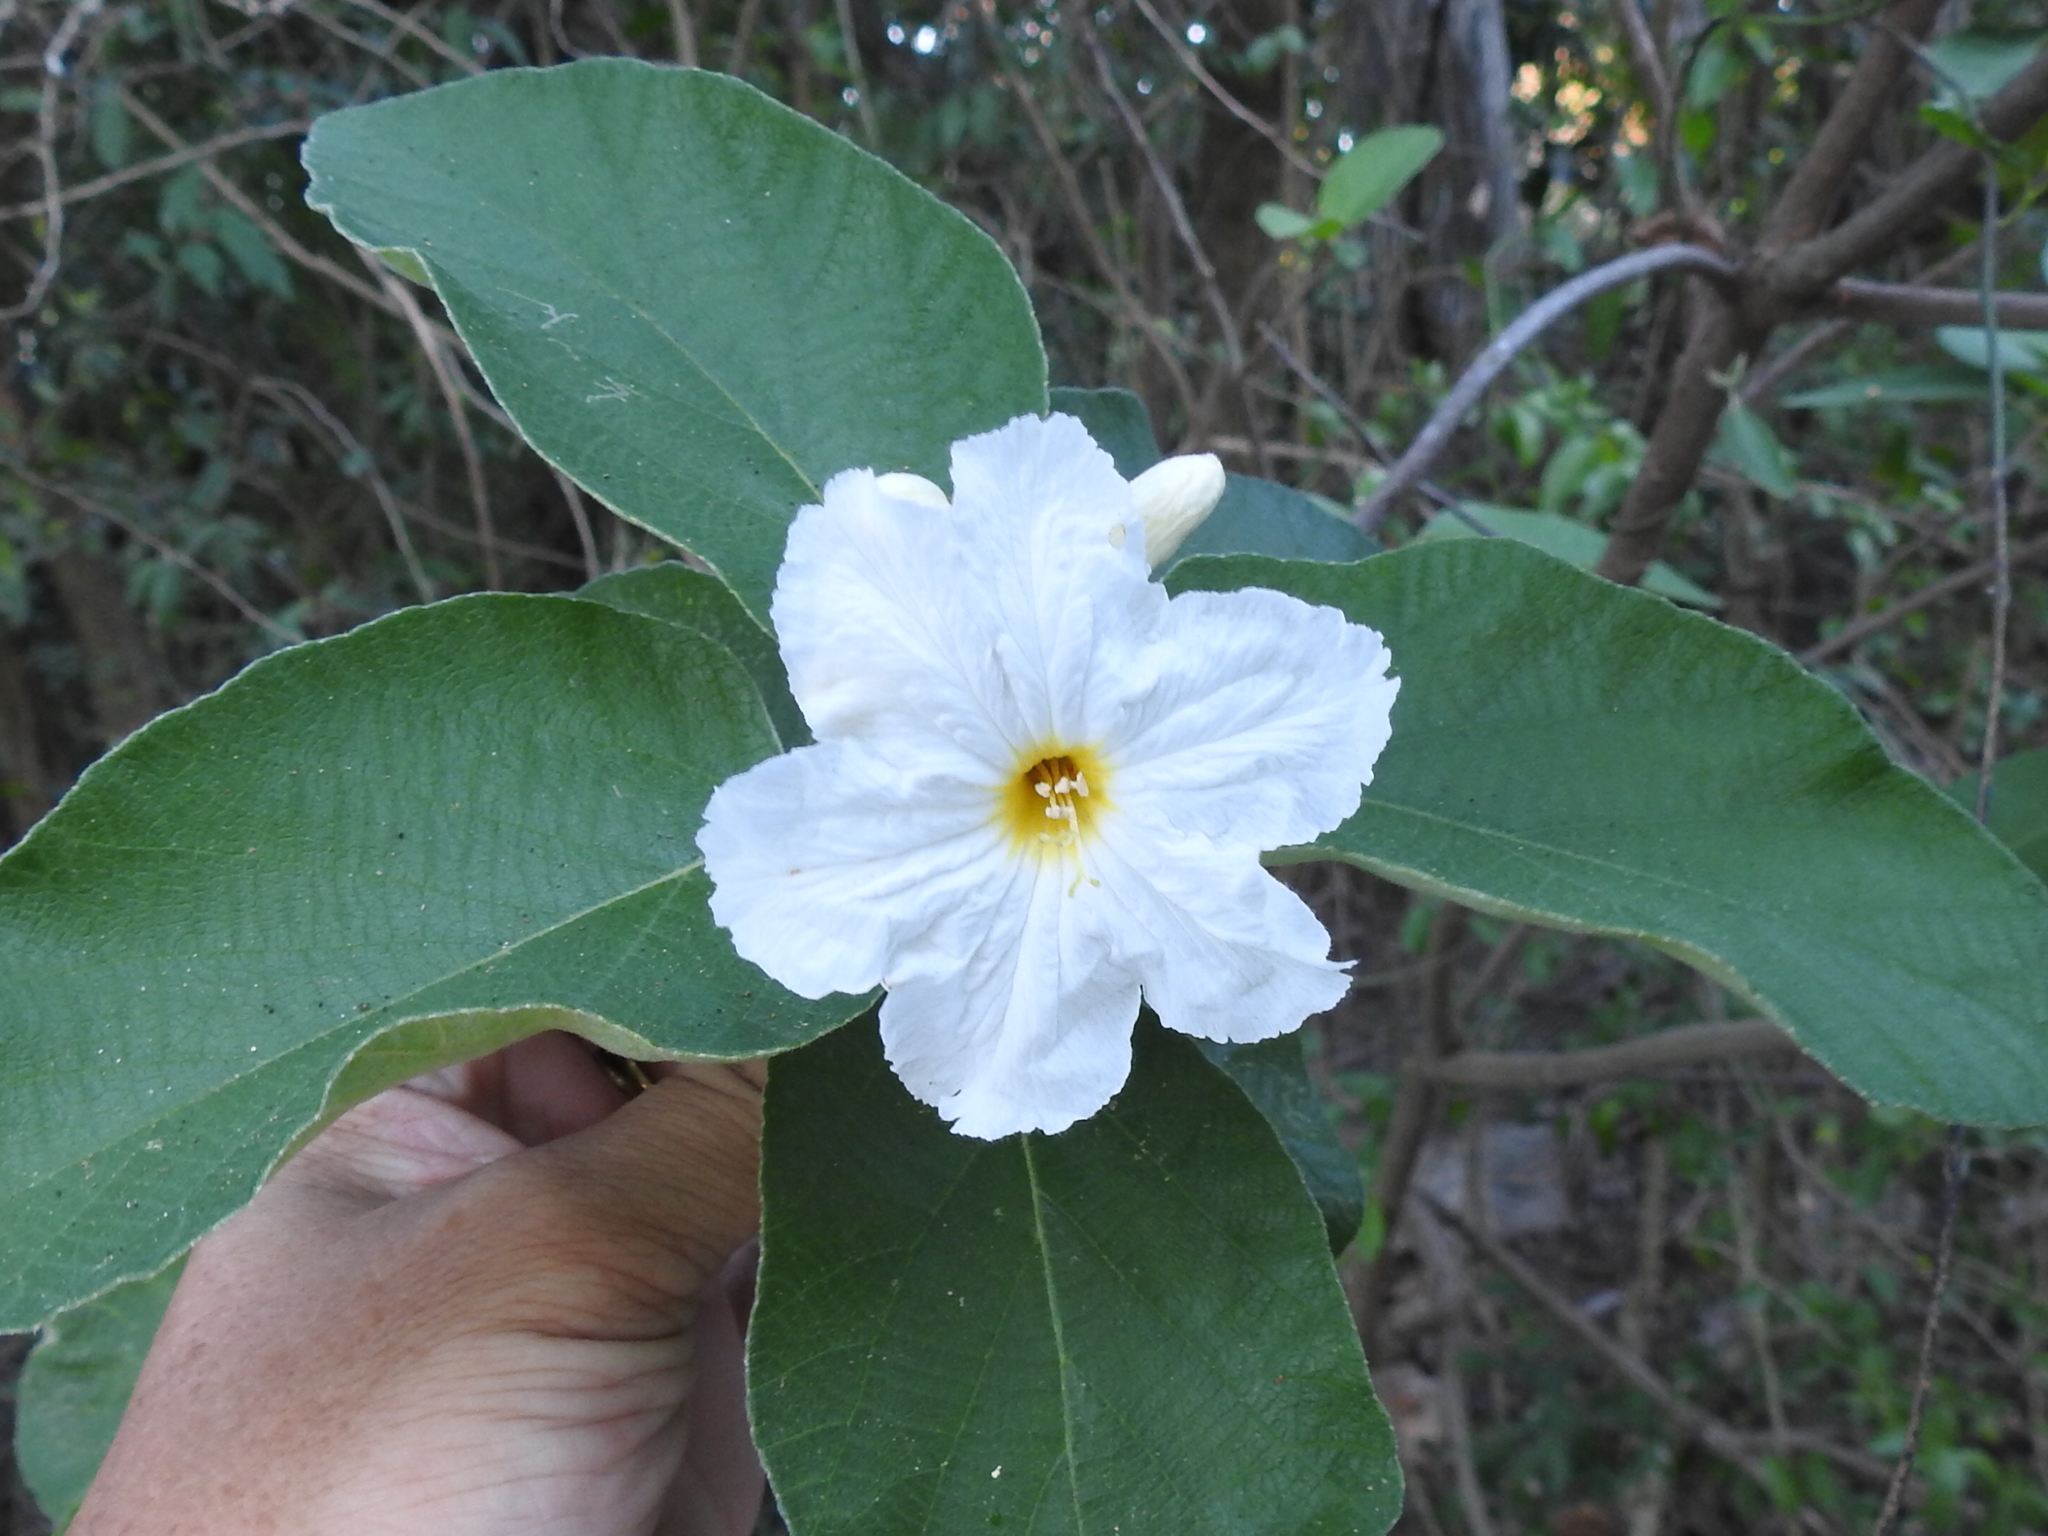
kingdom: Plantae
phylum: Tracheophyta
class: Magnoliopsida
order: Boraginales
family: Cordiaceae
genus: Cordia
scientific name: Cordia boissieri
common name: Mexican-olive
